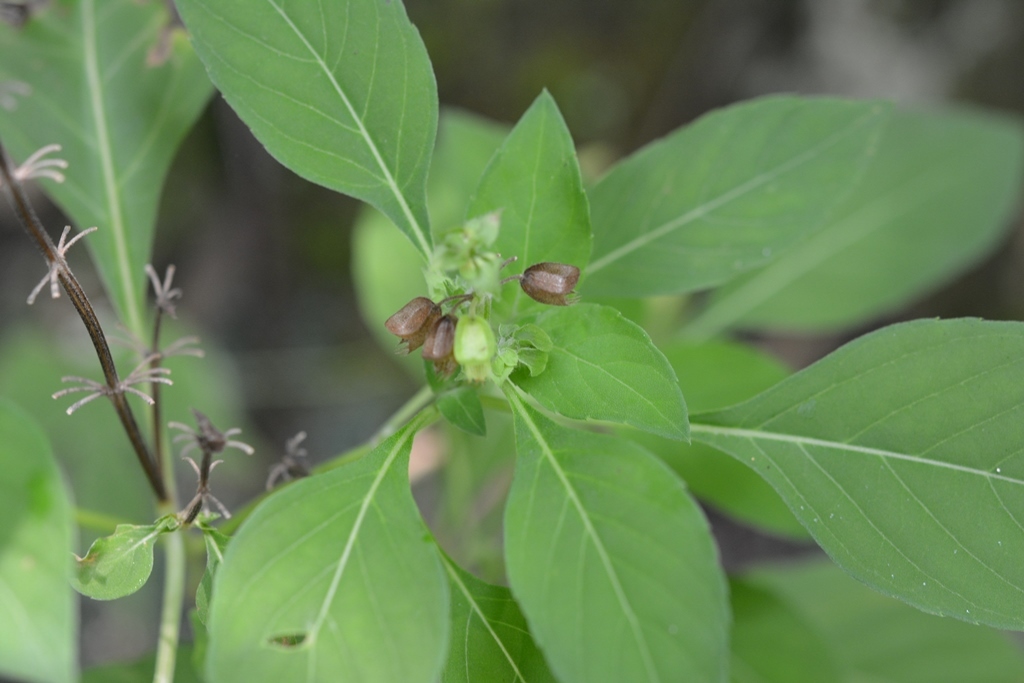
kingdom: Plantae
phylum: Tracheophyta
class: Magnoliopsida
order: Lamiales
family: Lamiaceae
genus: Ocimum
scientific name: Ocimum campechianum
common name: Mosquito basil
